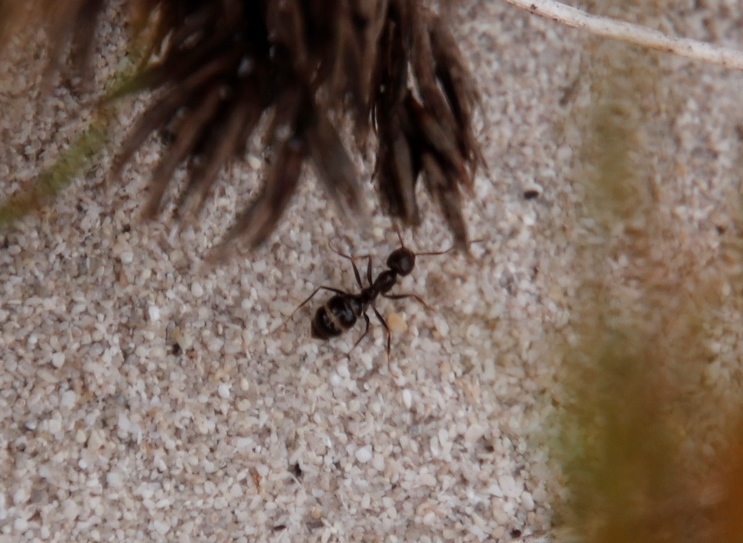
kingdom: Animalia
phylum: Arthropoda
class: Insecta
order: Hymenoptera
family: Formicidae
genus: Anoplolepis
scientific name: Anoplolepis steingroeveri
